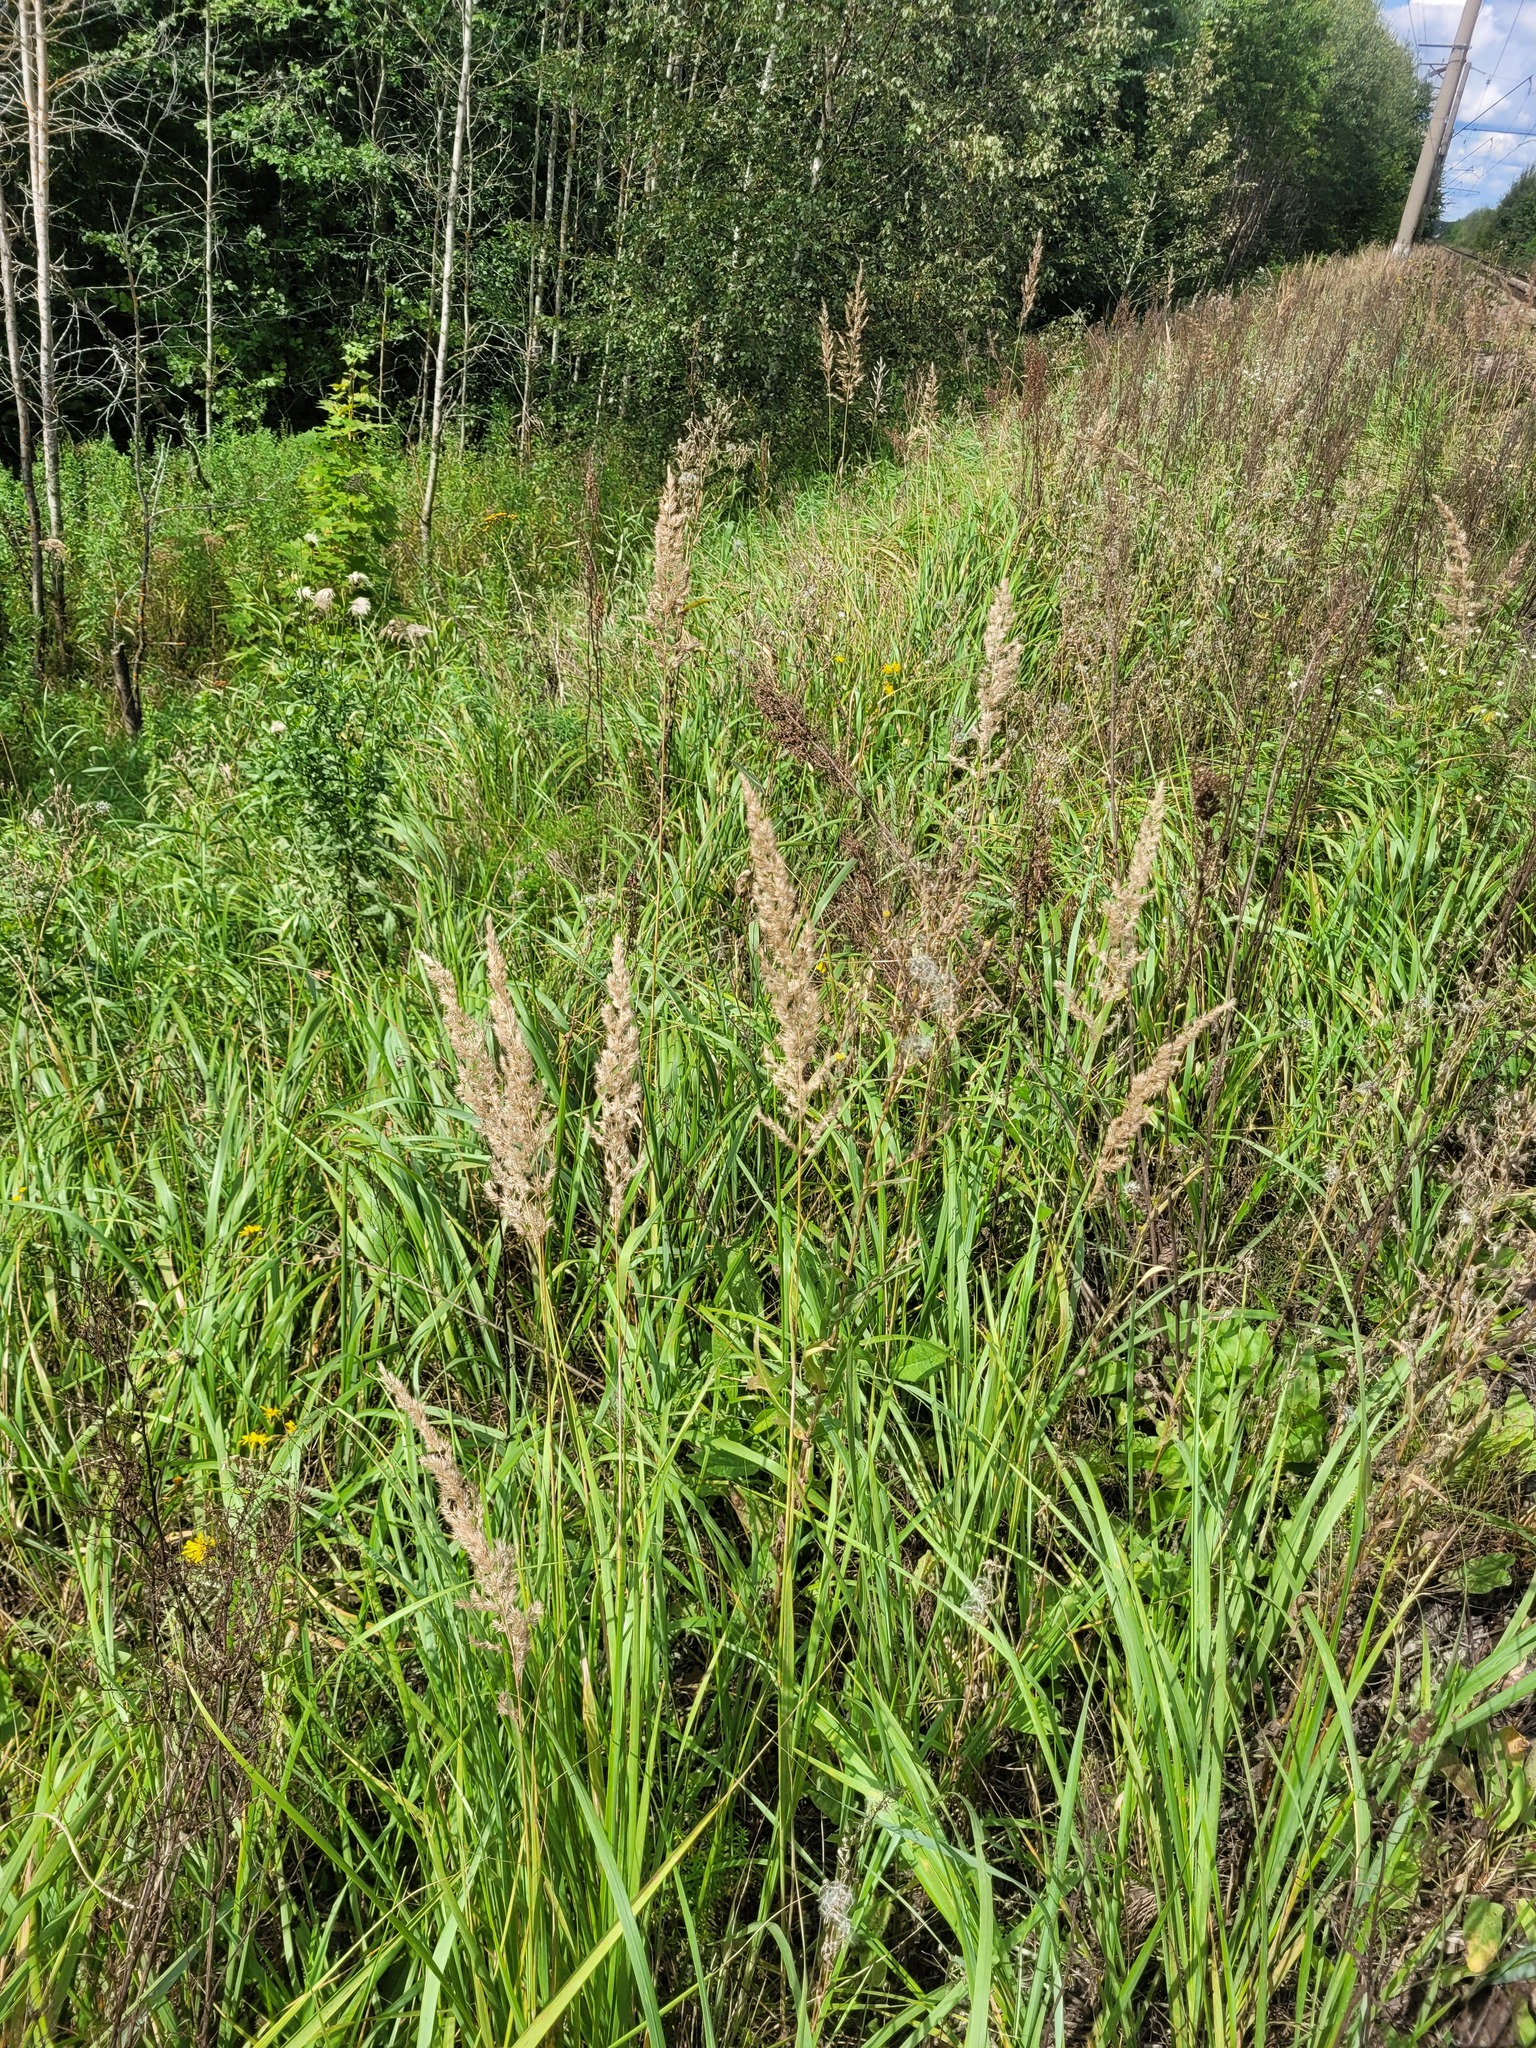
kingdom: Plantae
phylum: Tracheophyta
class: Liliopsida
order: Poales
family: Poaceae
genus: Calamagrostis
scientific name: Calamagrostis epigejos
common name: Wood small-reed
